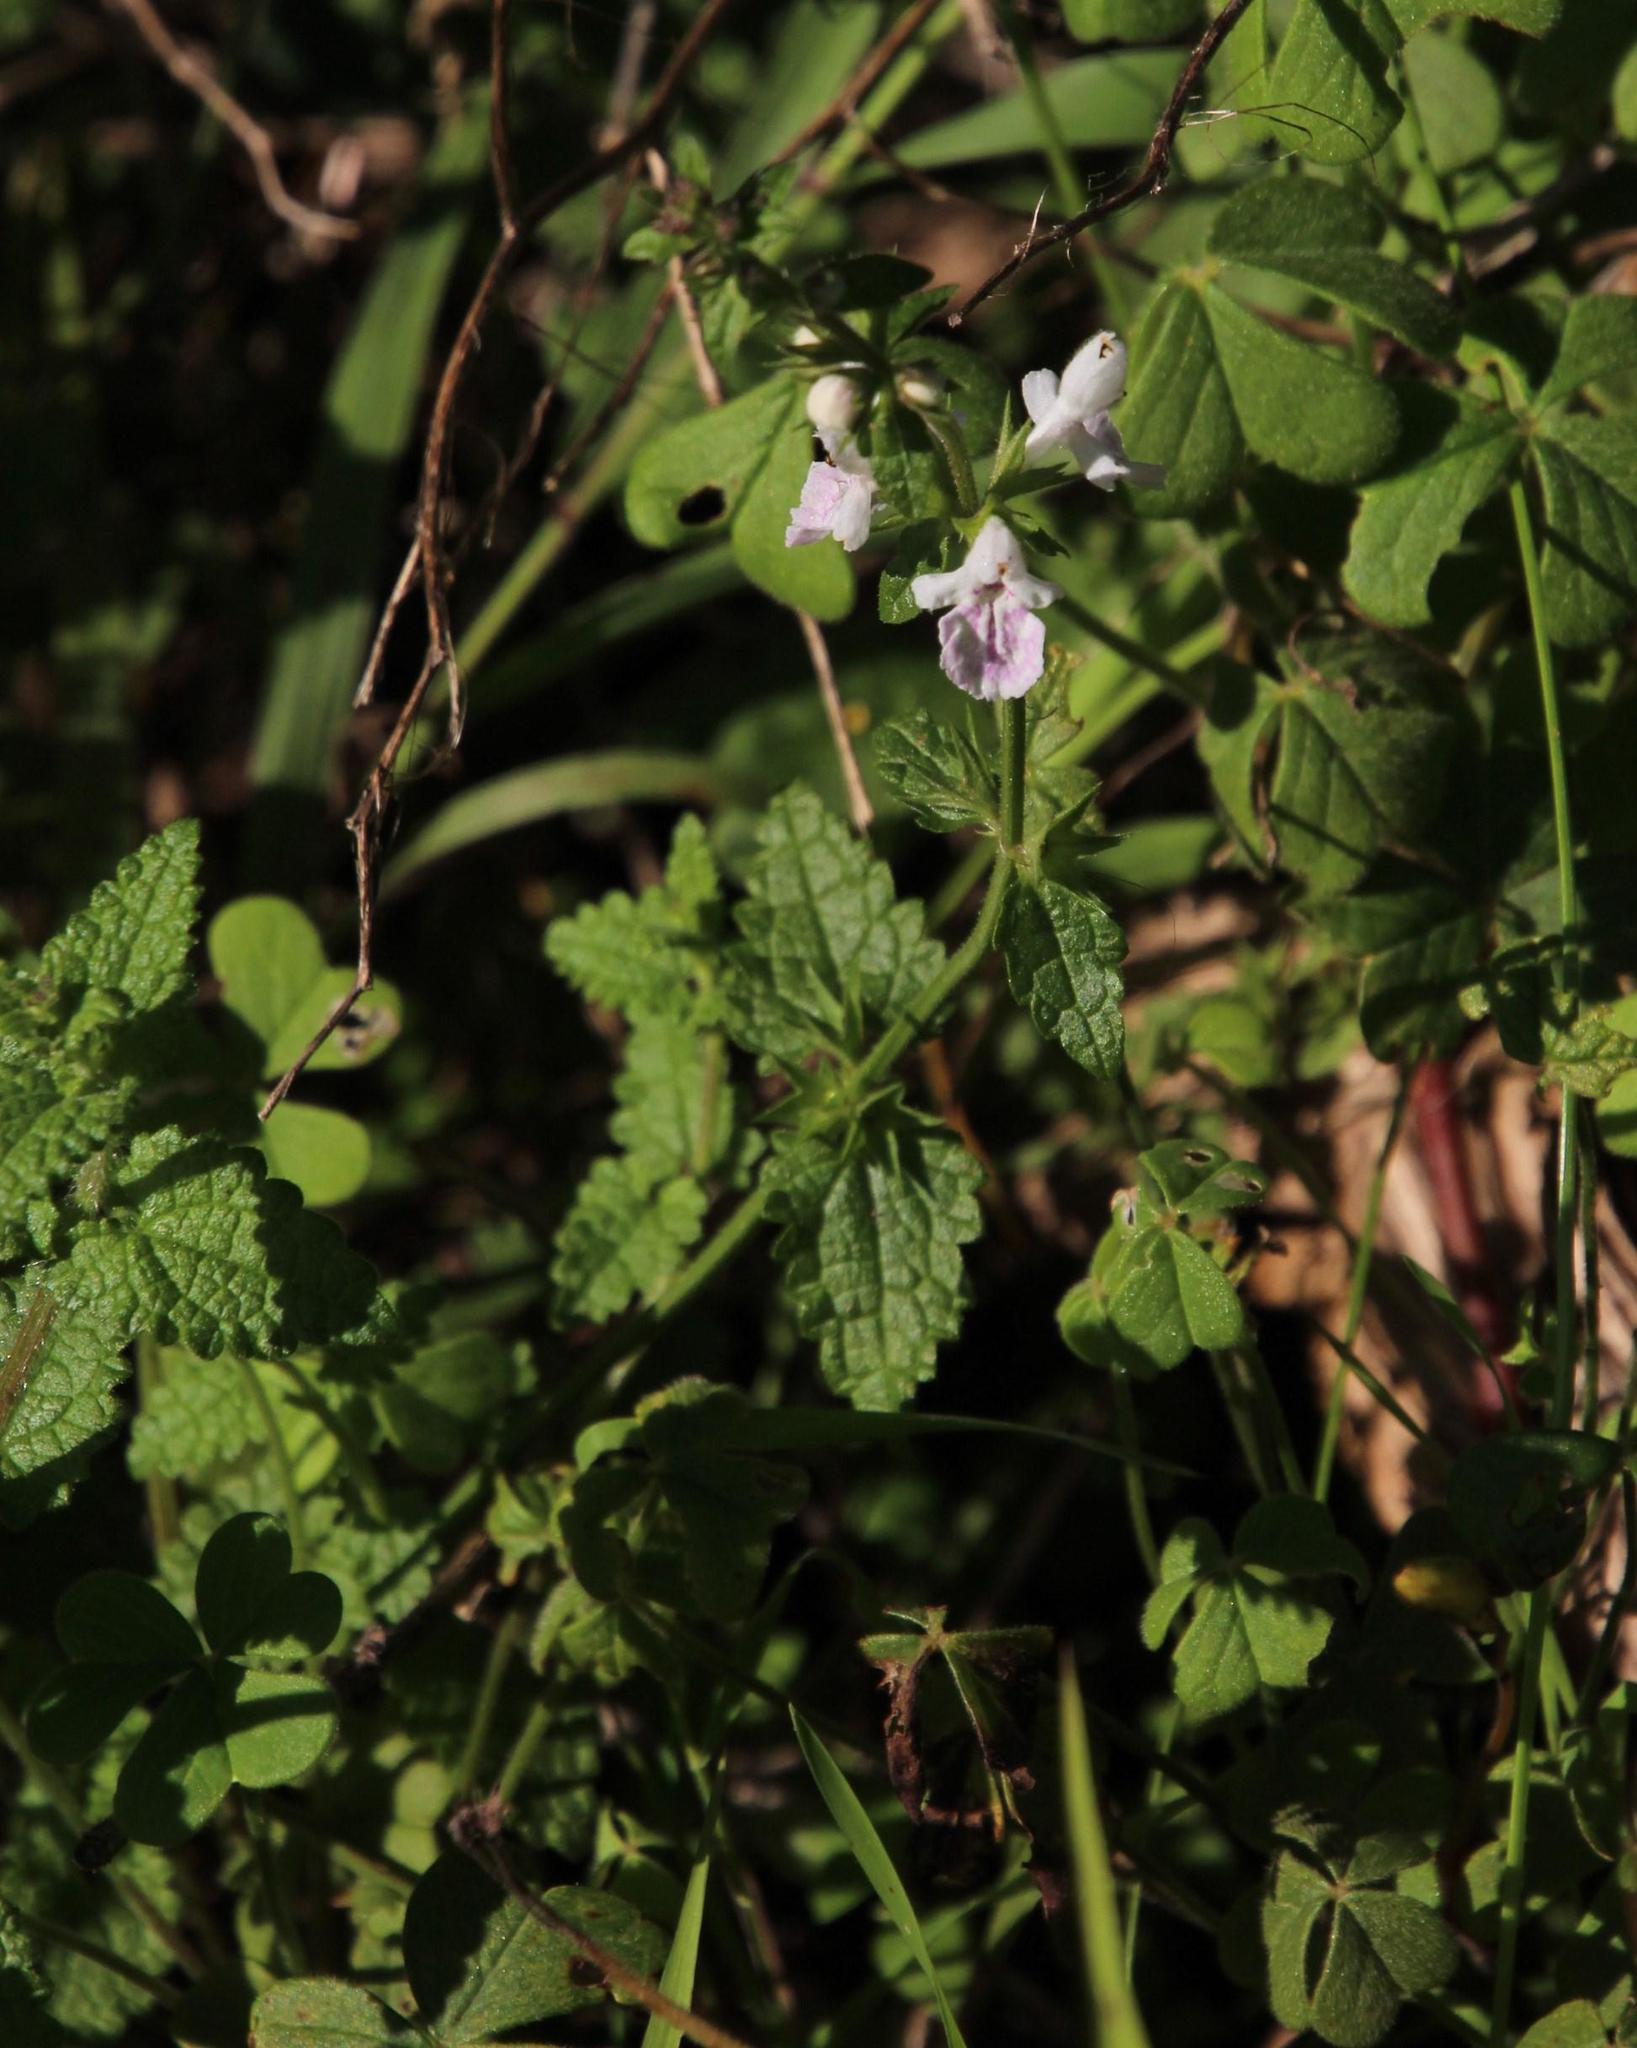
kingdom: Plantae
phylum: Tracheophyta
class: Magnoliopsida
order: Lamiales
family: Lamiaceae
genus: Stachys
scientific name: Stachys aethiopica
